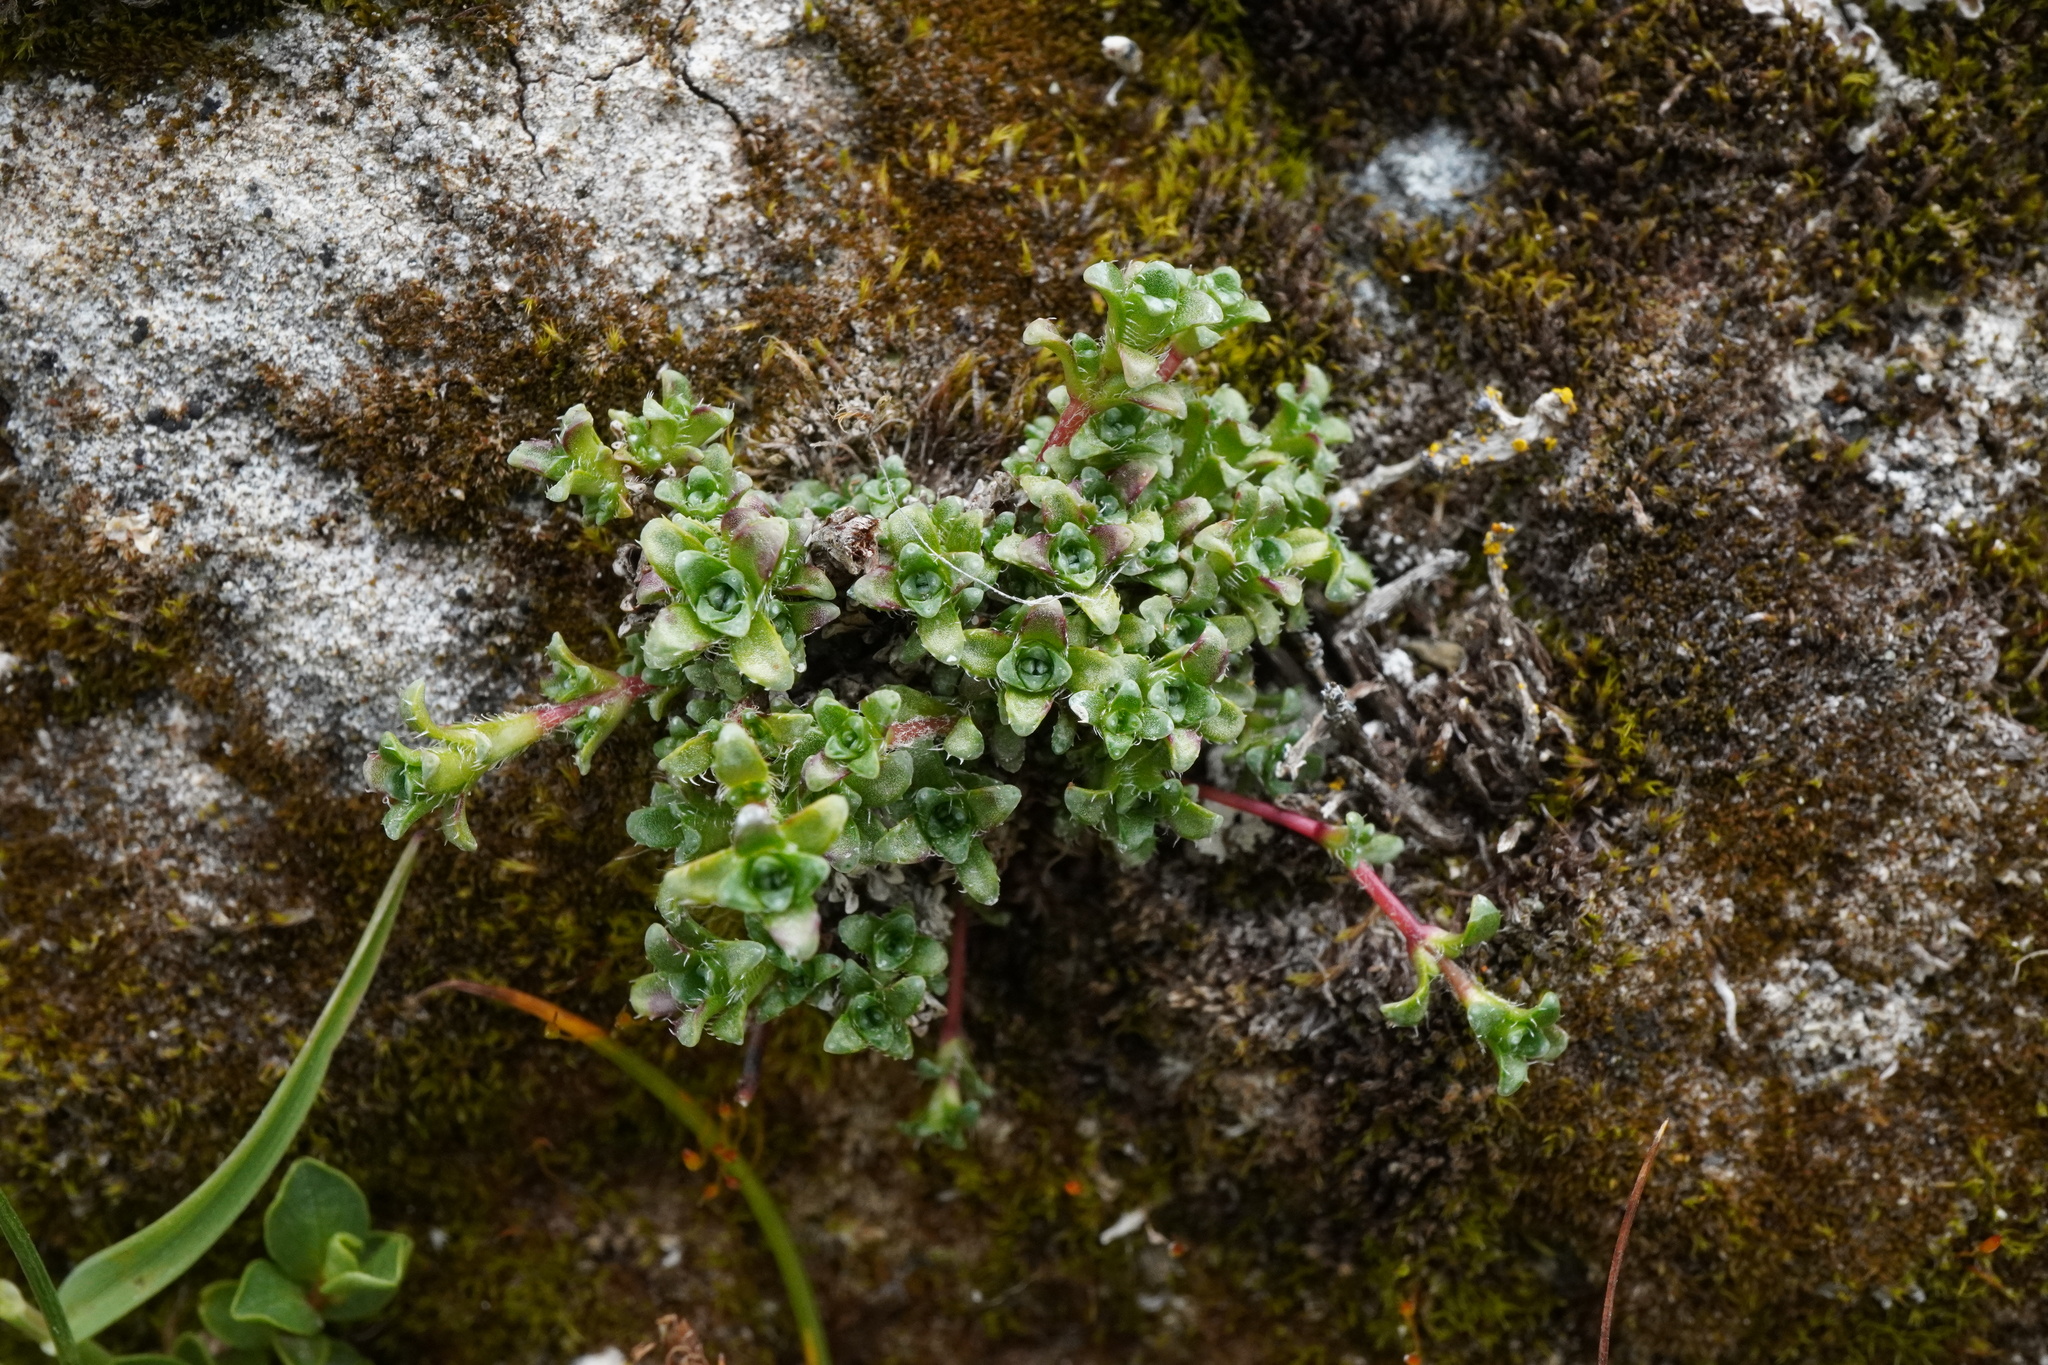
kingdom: Plantae
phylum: Tracheophyta
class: Magnoliopsida
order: Saxifragales
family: Saxifragaceae
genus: Saxifraga
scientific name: Saxifraga oppositifolia
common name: Purple saxifrage
